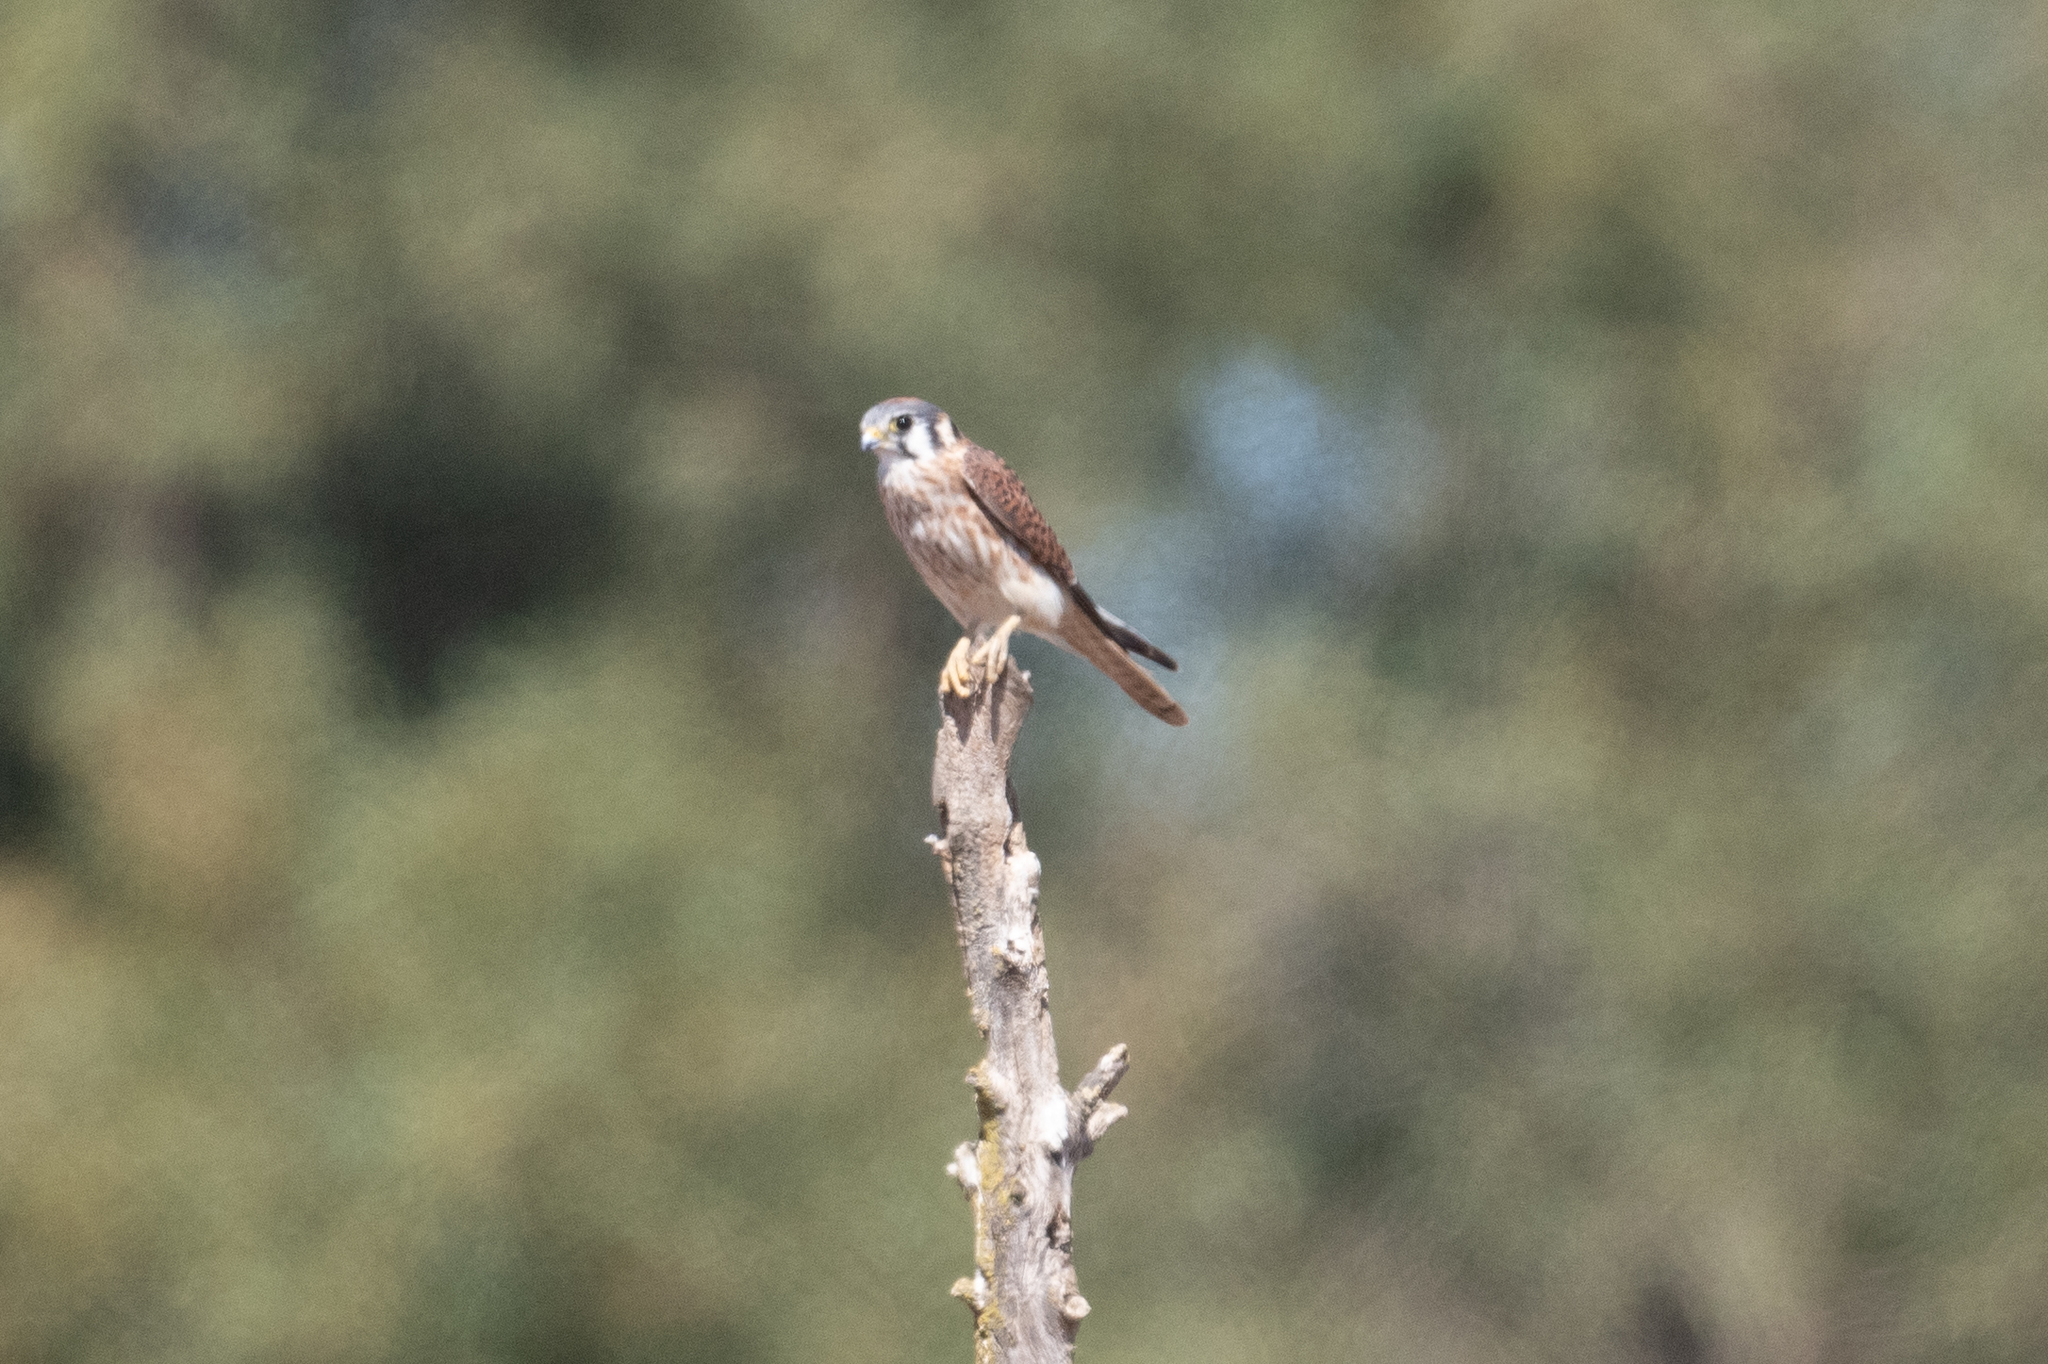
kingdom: Animalia
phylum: Chordata
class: Aves
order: Falconiformes
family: Falconidae
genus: Falco
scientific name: Falco sparverius
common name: American kestrel
